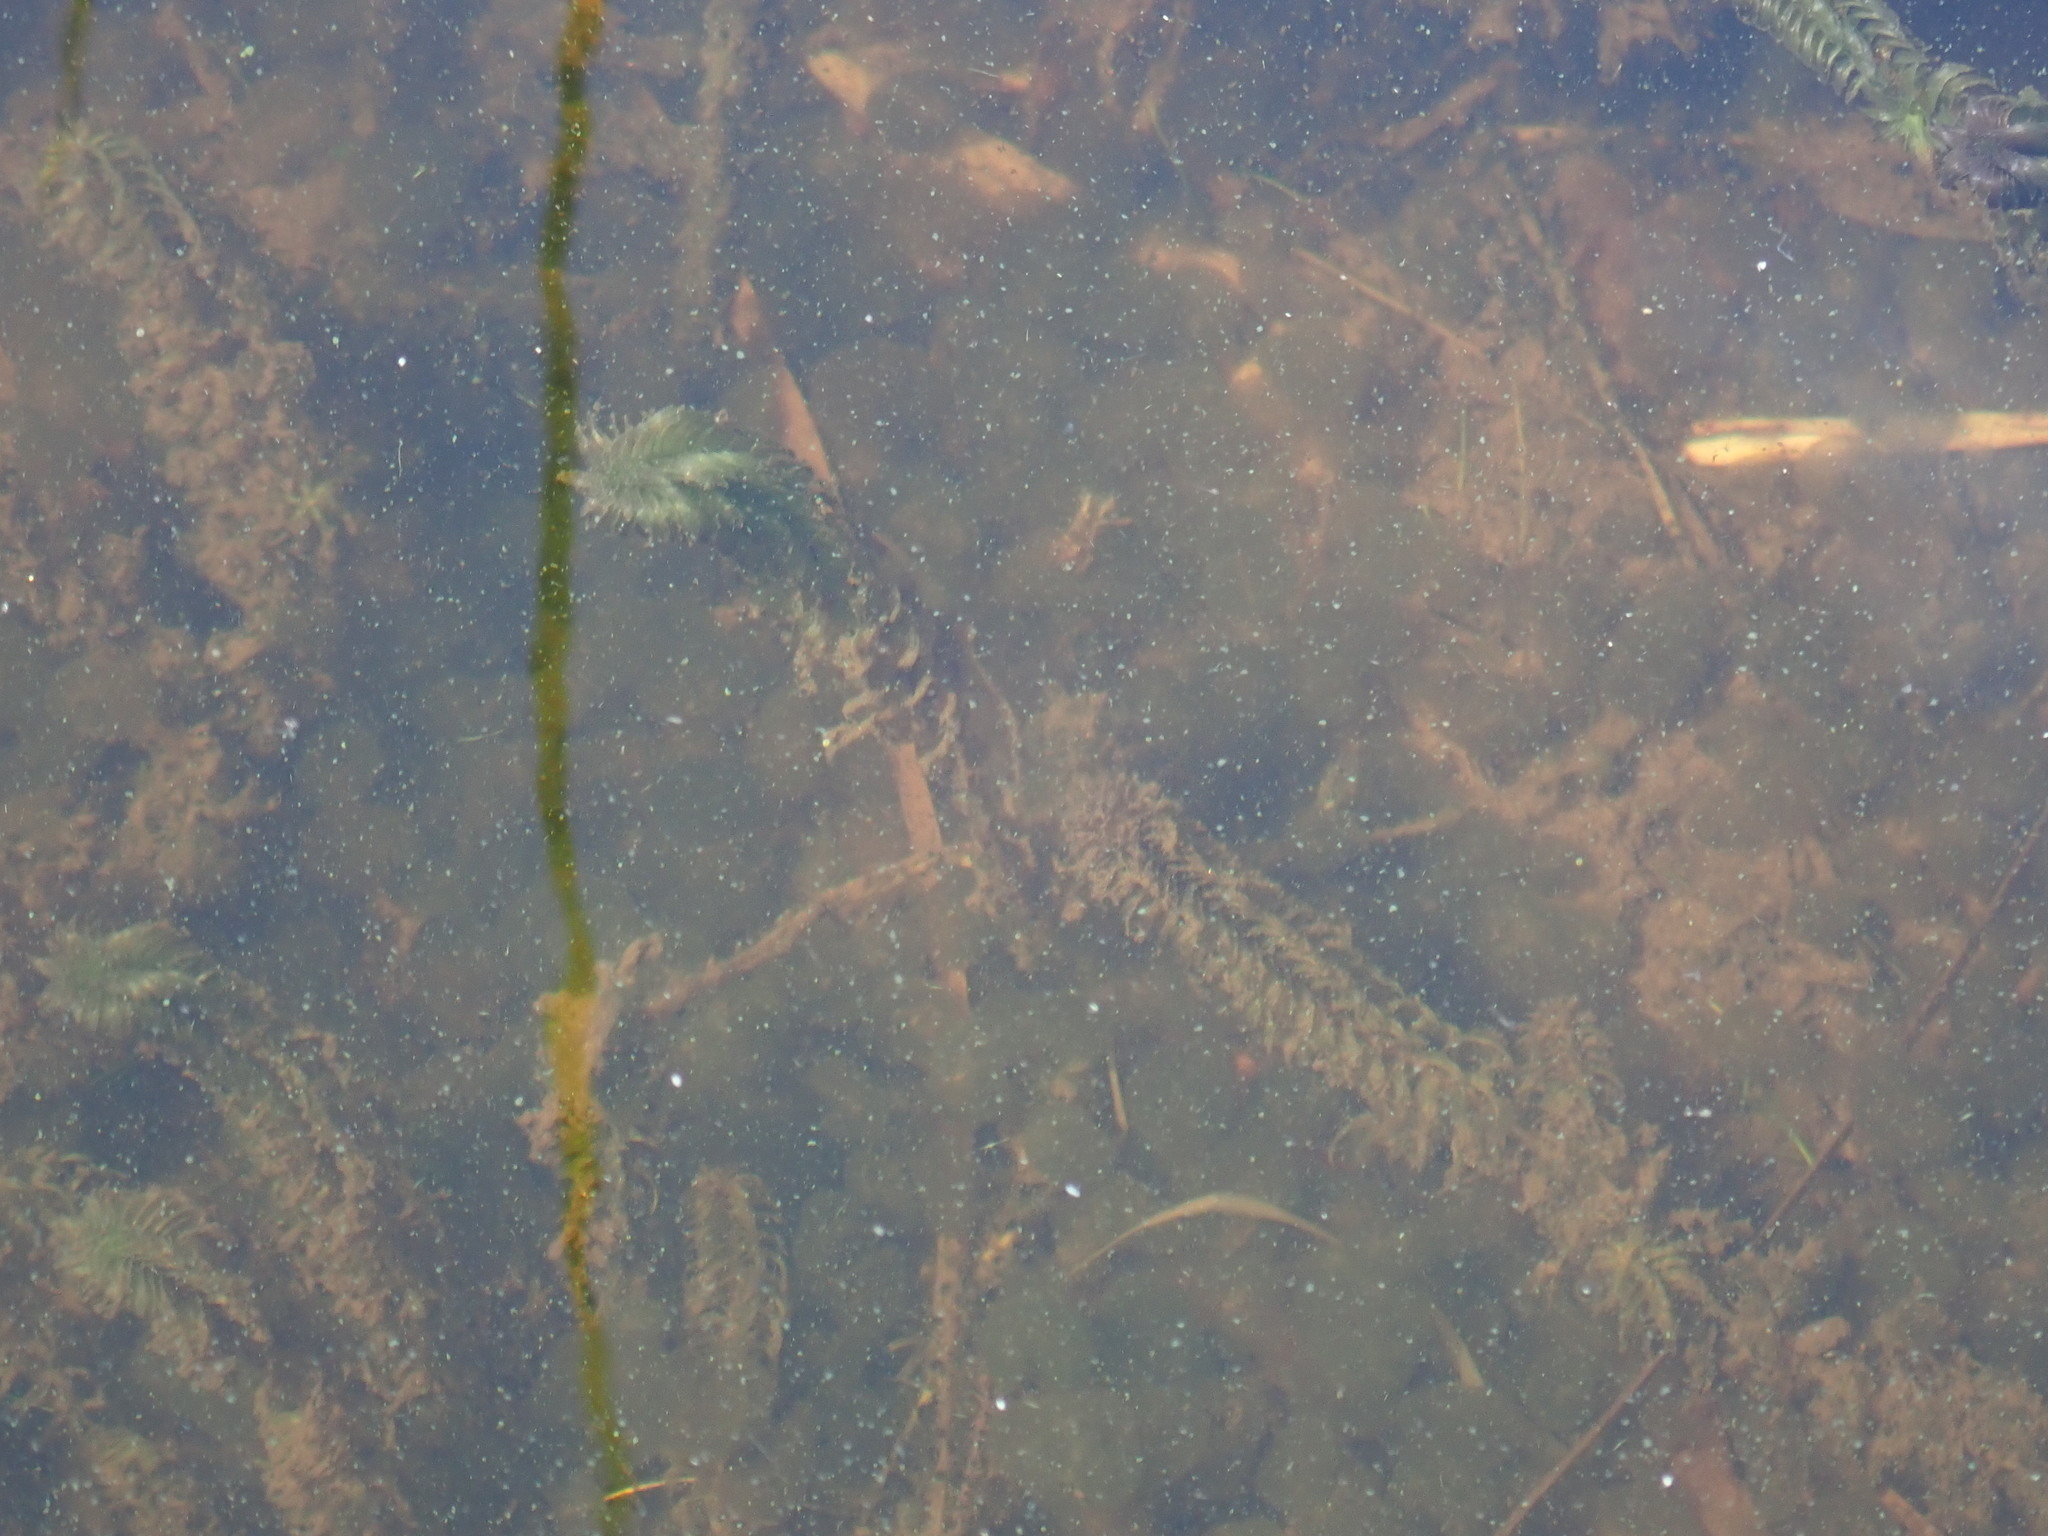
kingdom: Plantae
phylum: Tracheophyta
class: Liliopsida
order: Alismatales
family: Hydrocharitaceae
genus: Elodea
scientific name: Elodea canadensis
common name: Canadian waterweed
